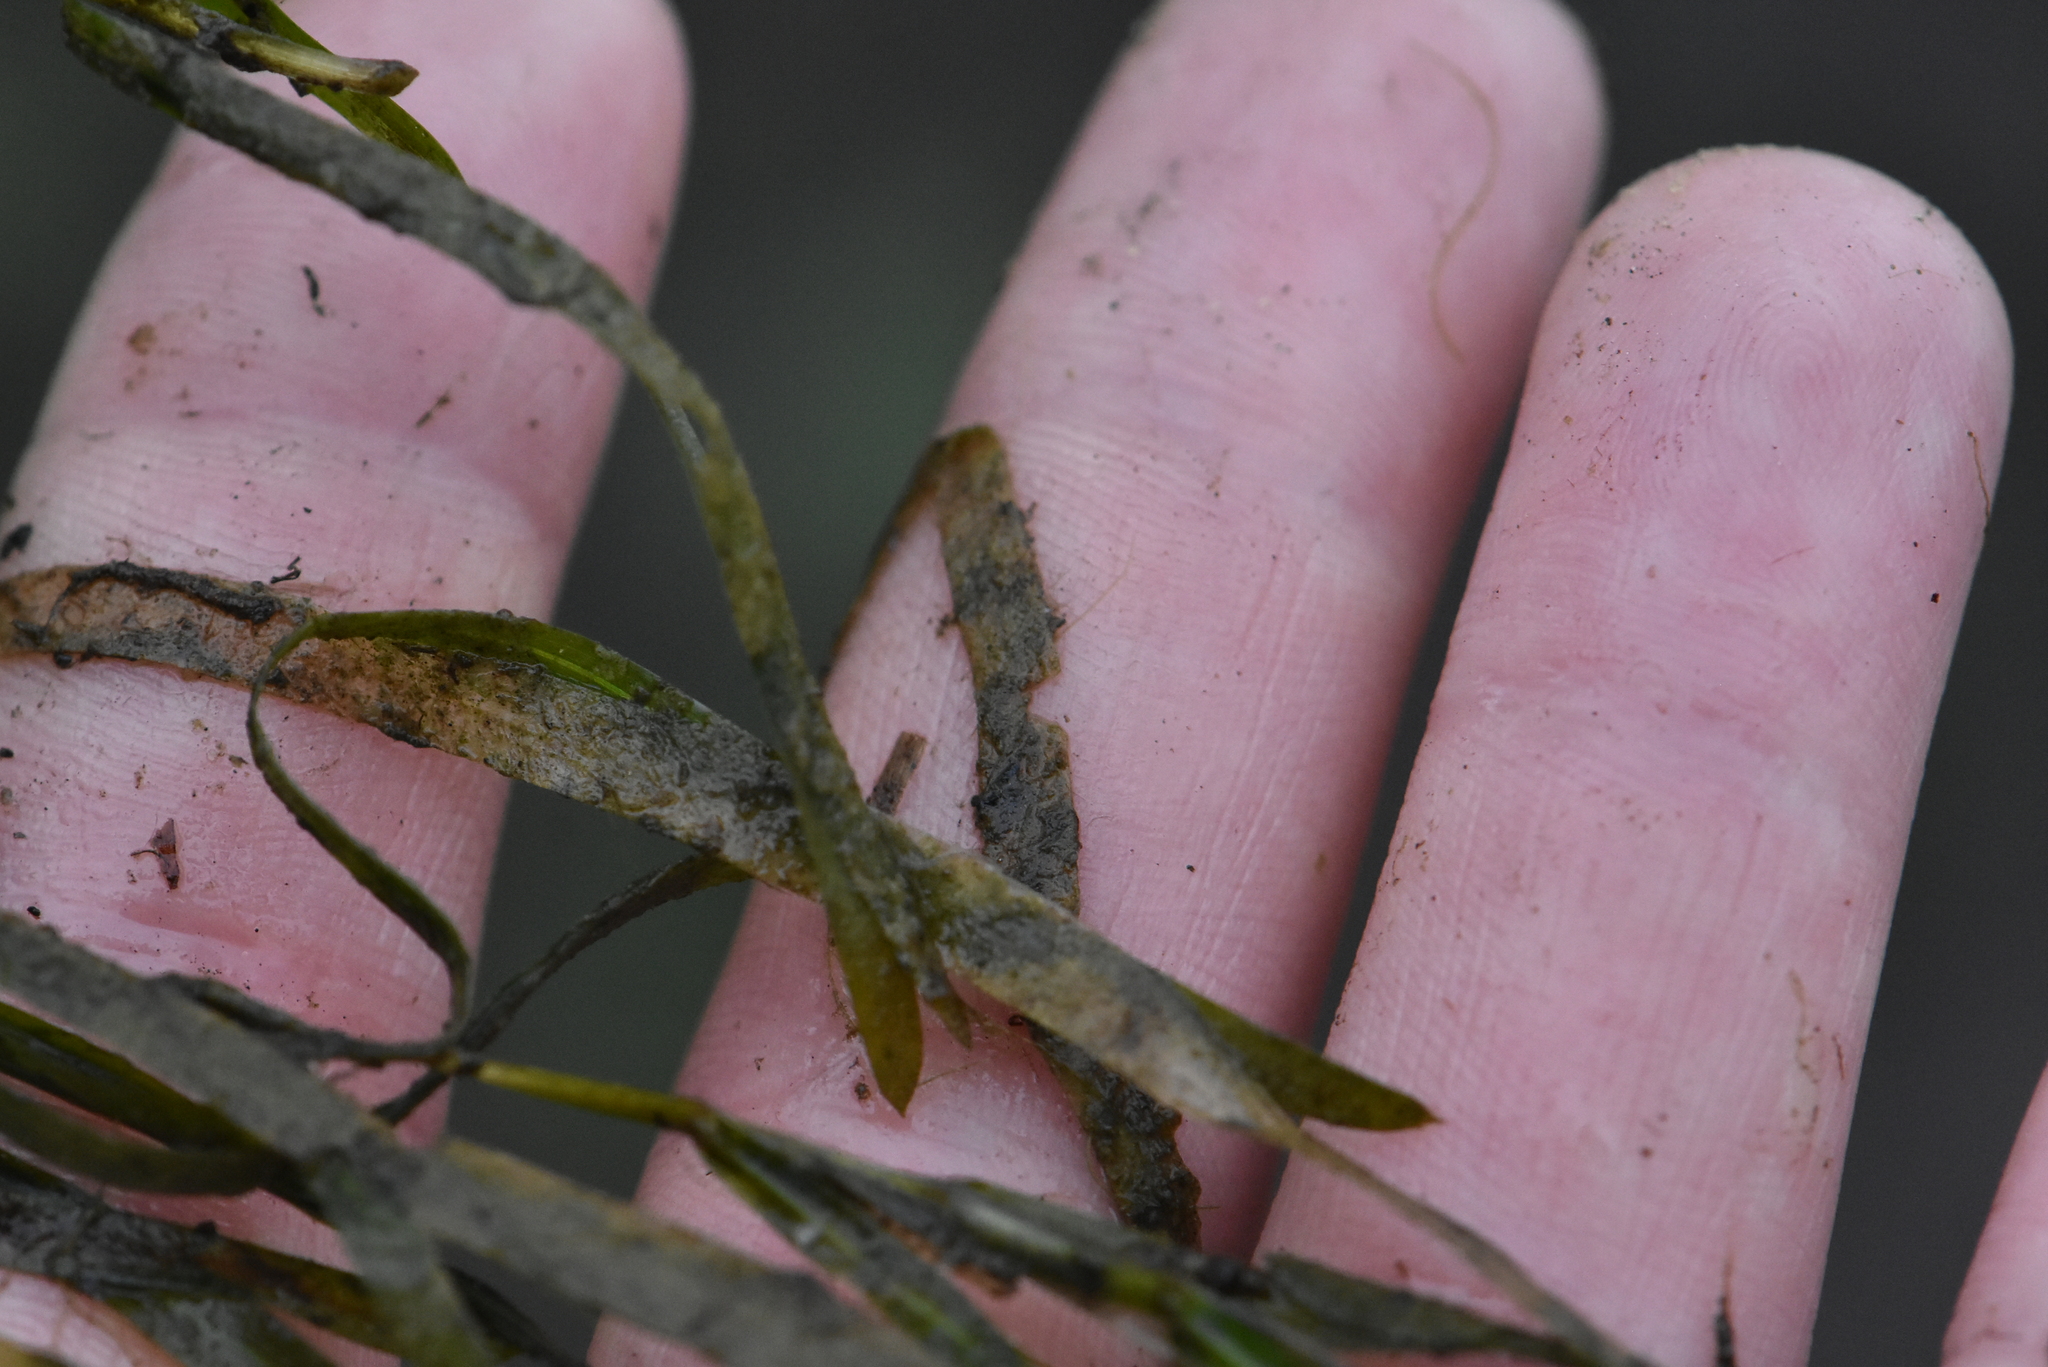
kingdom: Plantae
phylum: Tracheophyta
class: Liliopsida
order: Alismatales
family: Potamogetonaceae
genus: Potamogeton
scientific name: Potamogeton compressus
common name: Grass-wrack pondweed
